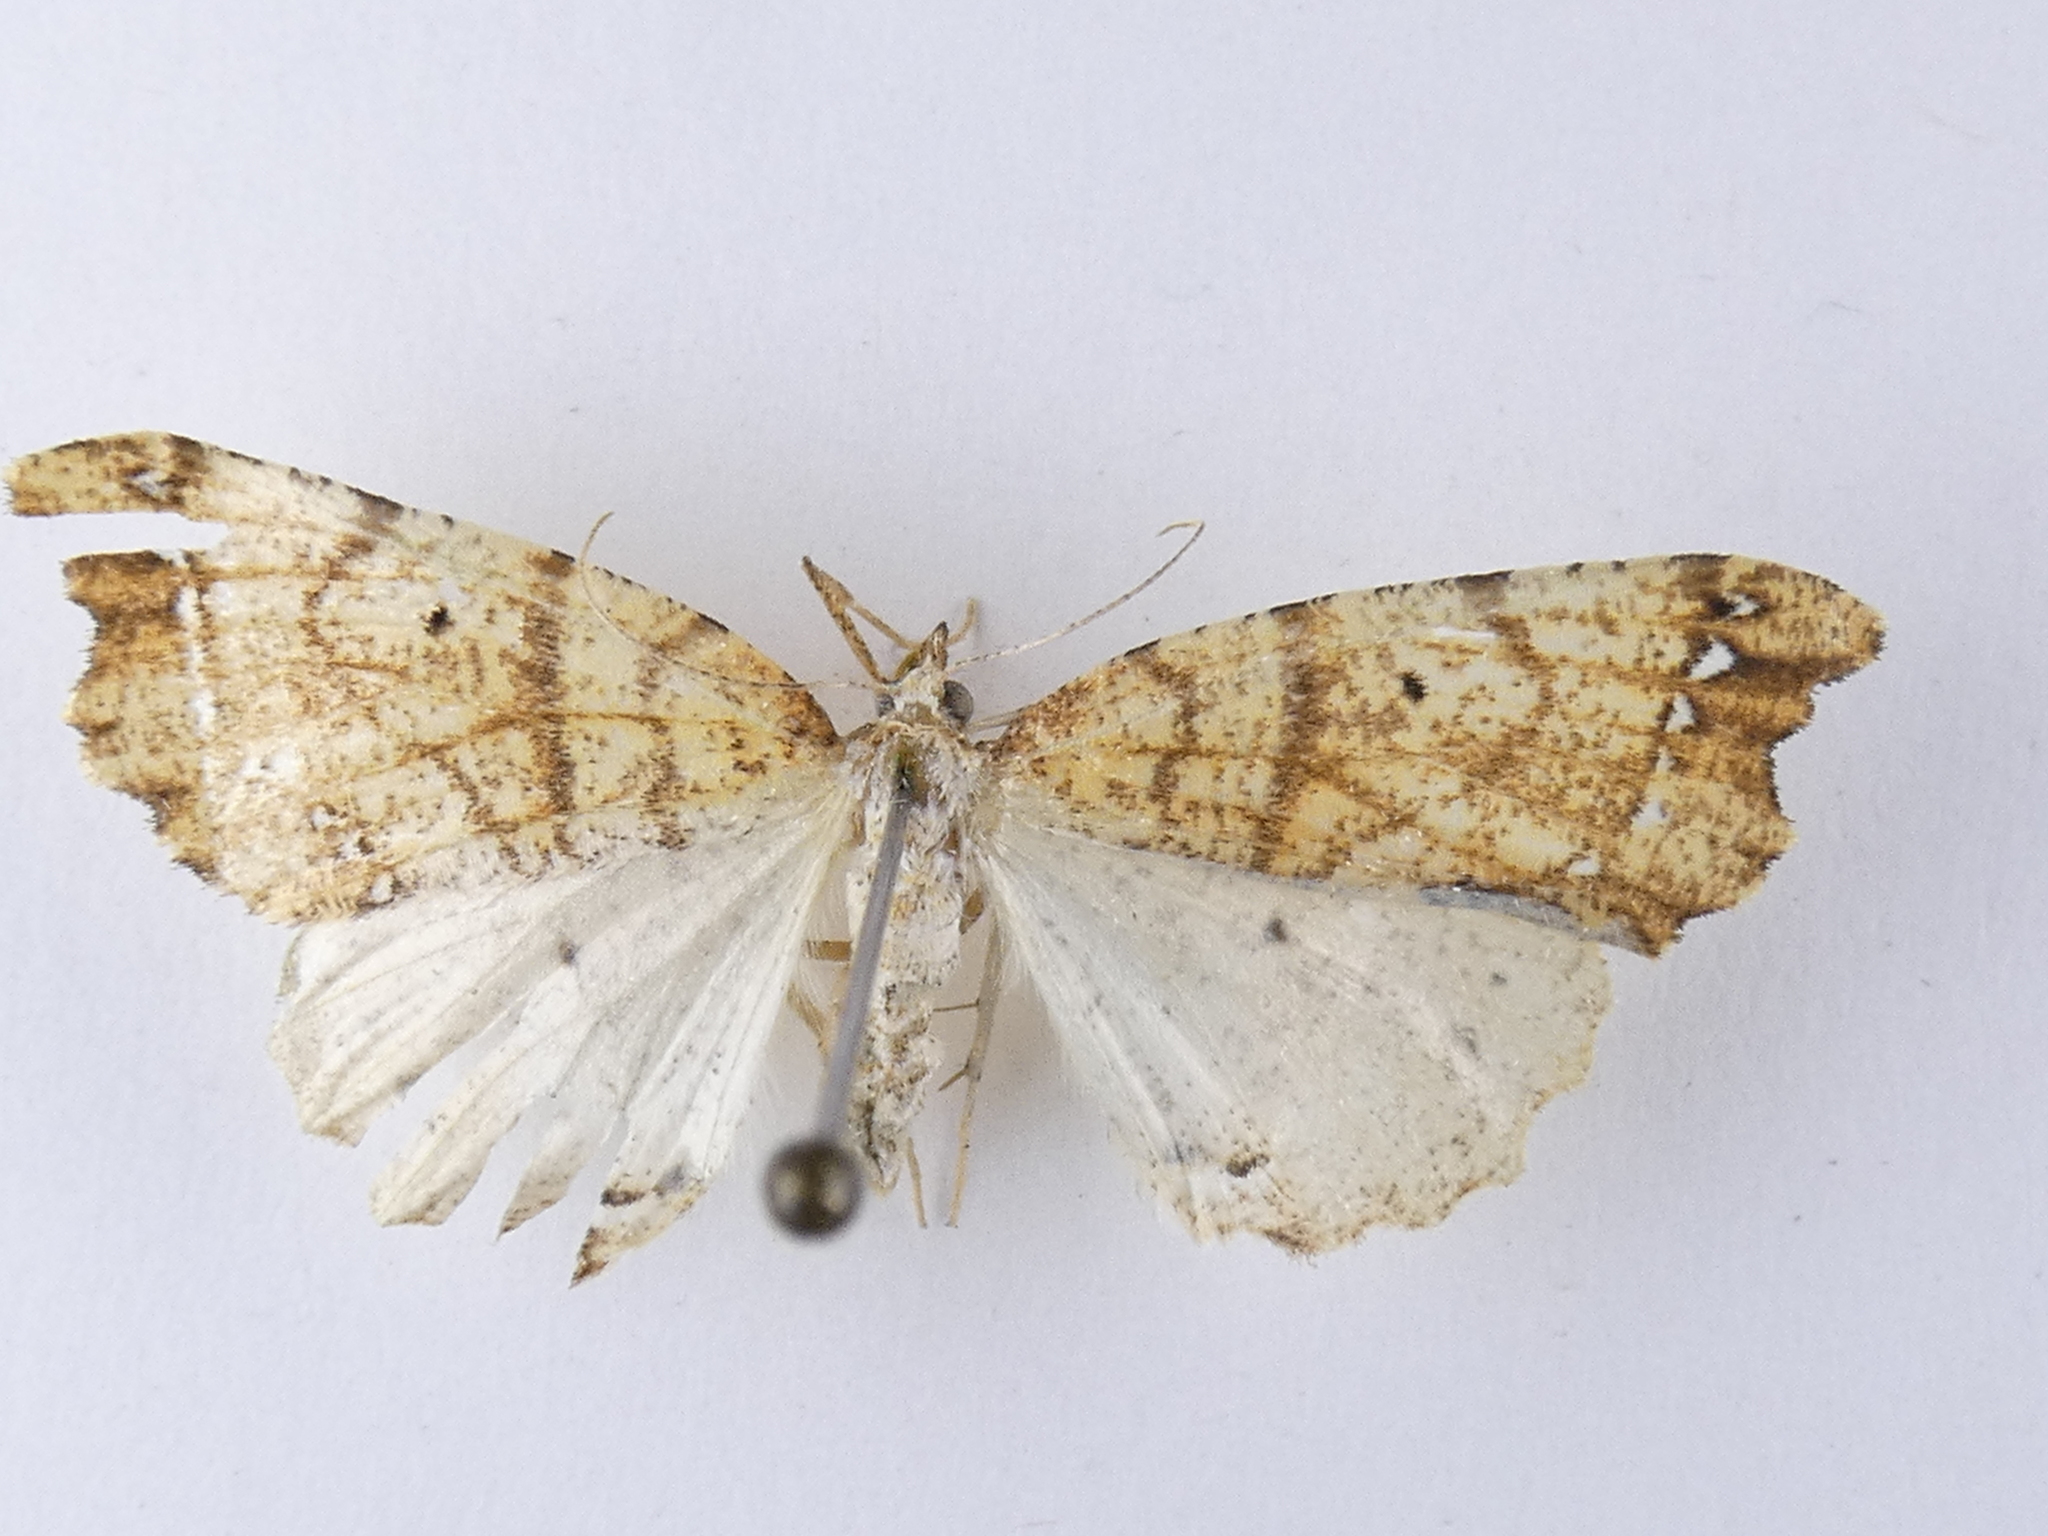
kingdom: Animalia
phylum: Arthropoda
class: Insecta
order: Lepidoptera
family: Geometridae
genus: Chalastra
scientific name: Chalastra pellurgata
